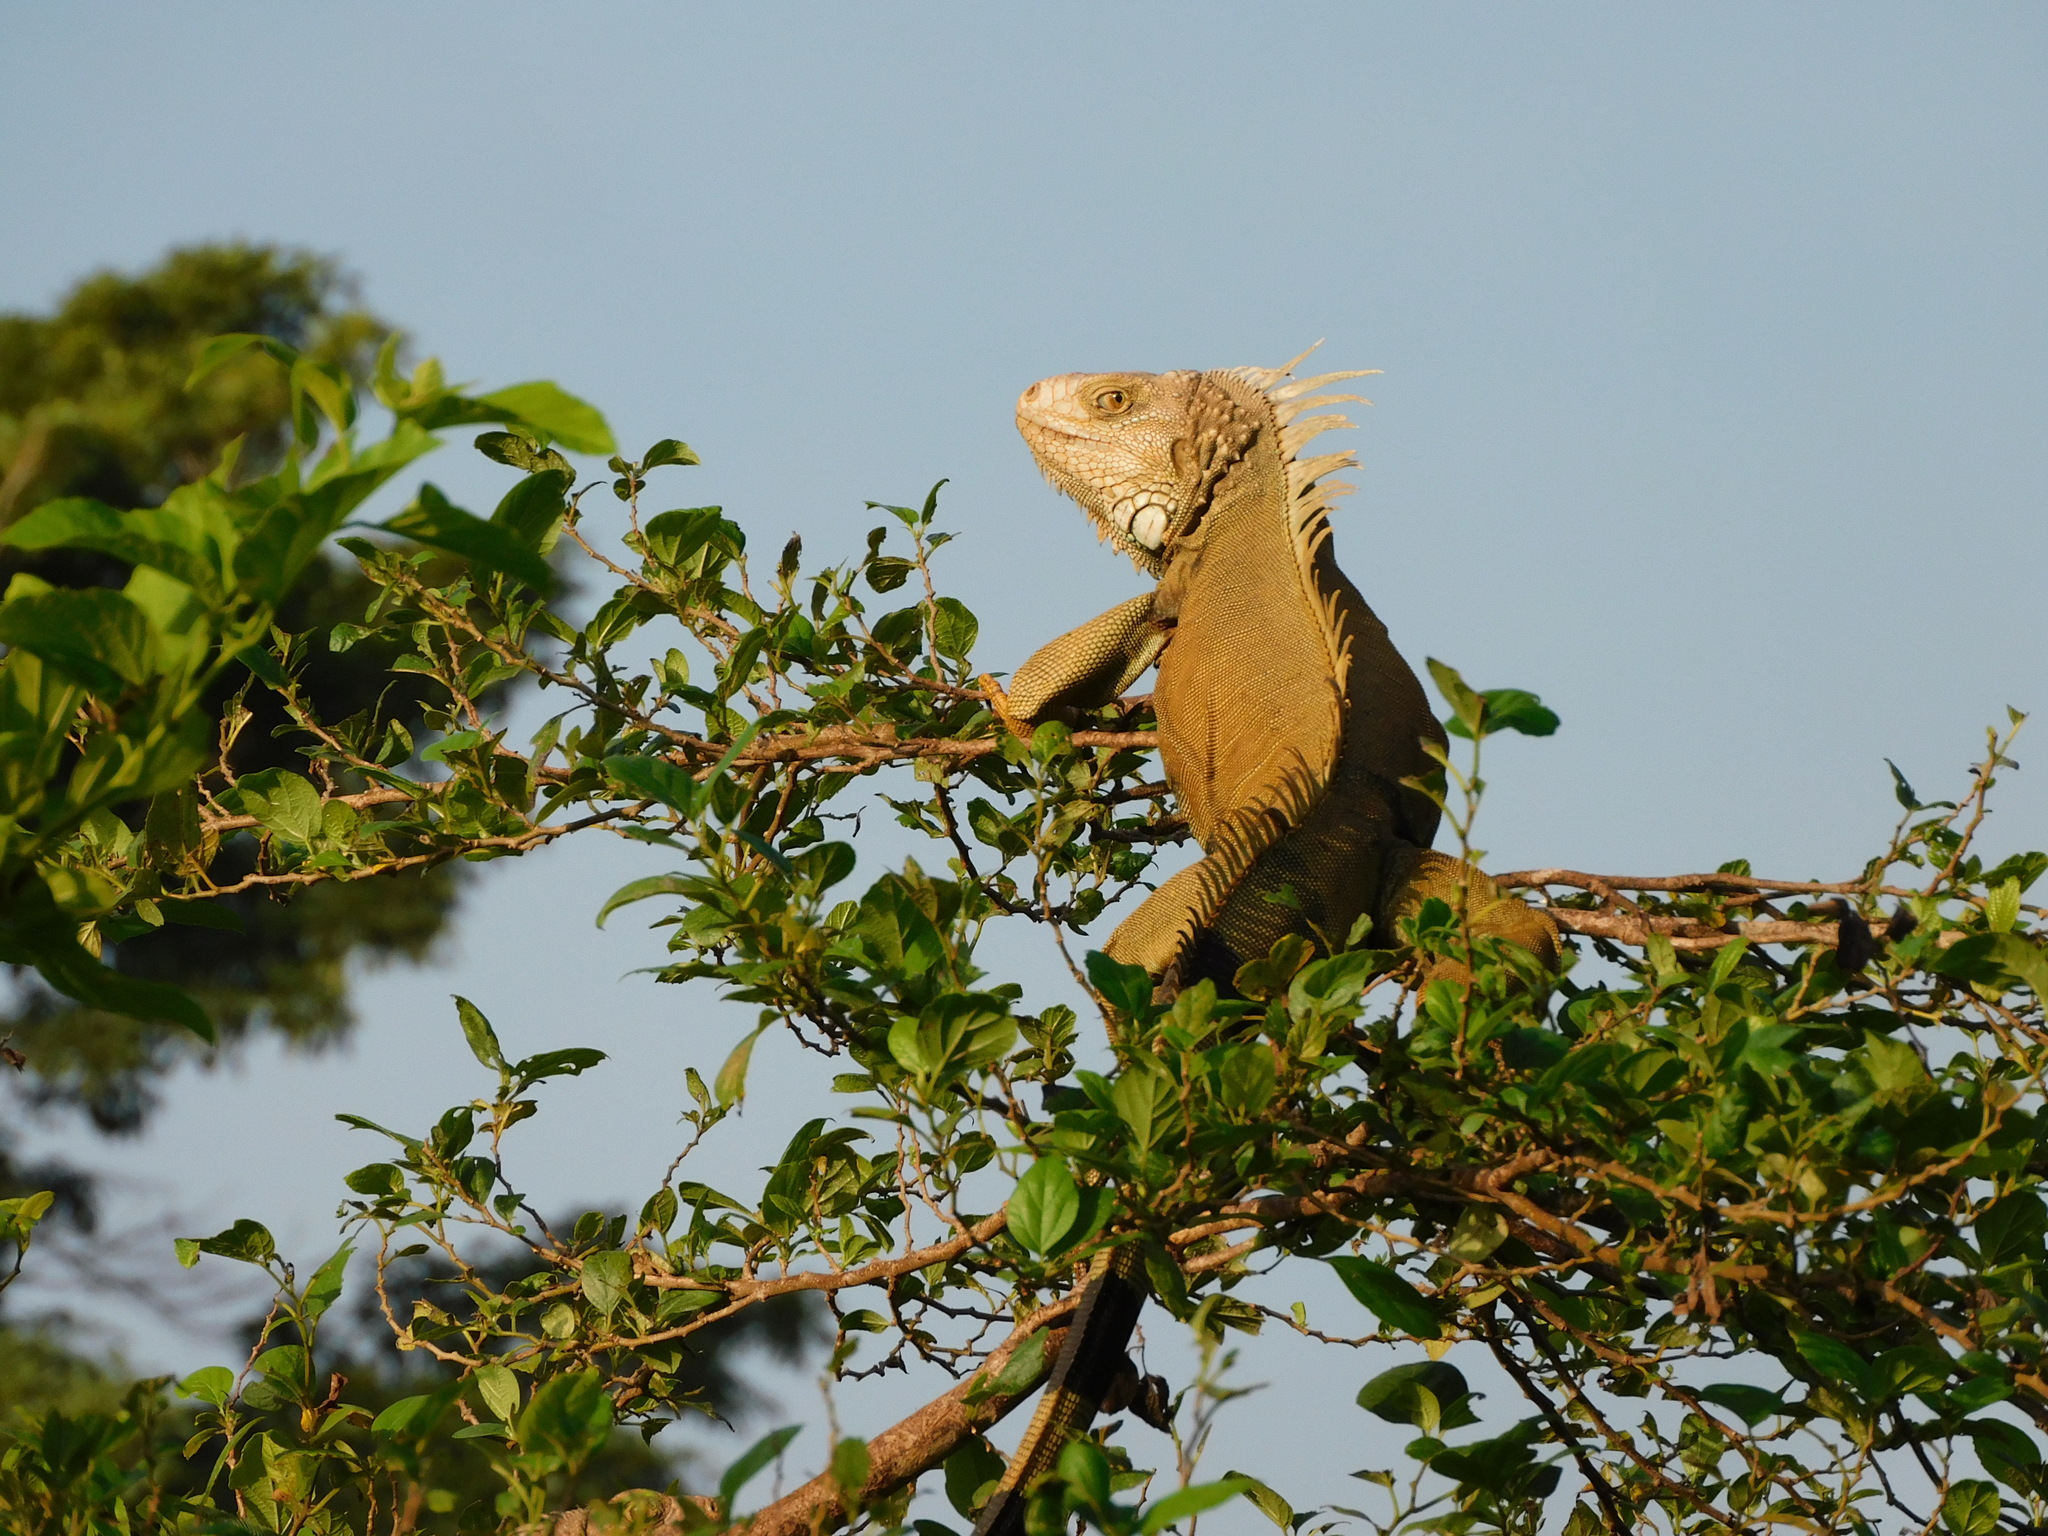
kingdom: Animalia
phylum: Chordata
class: Squamata
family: Iguanidae
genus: Iguana
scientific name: Iguana iguana
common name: Green iguana
